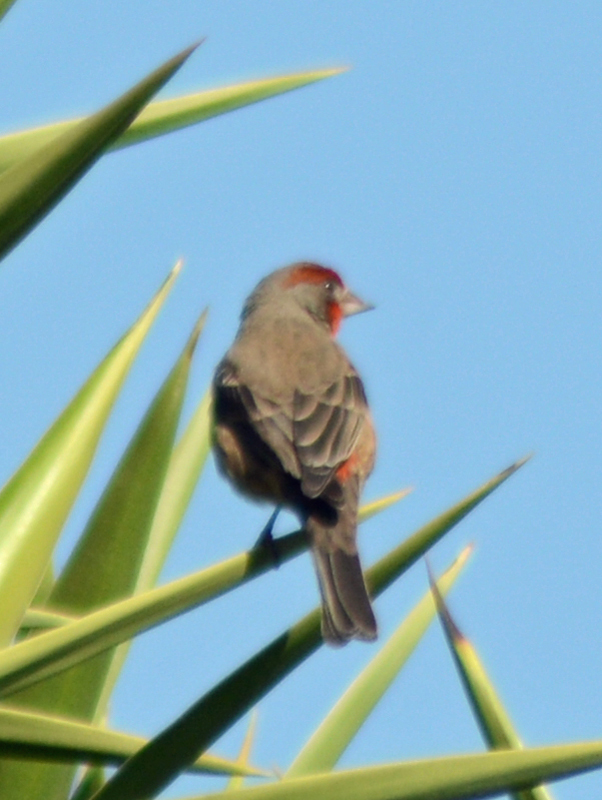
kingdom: Animalia
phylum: Chordata
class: Aves
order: Passeriformes
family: Fringillidae
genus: Haemorhous
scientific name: Haemorhous mexicanus
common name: House finch
